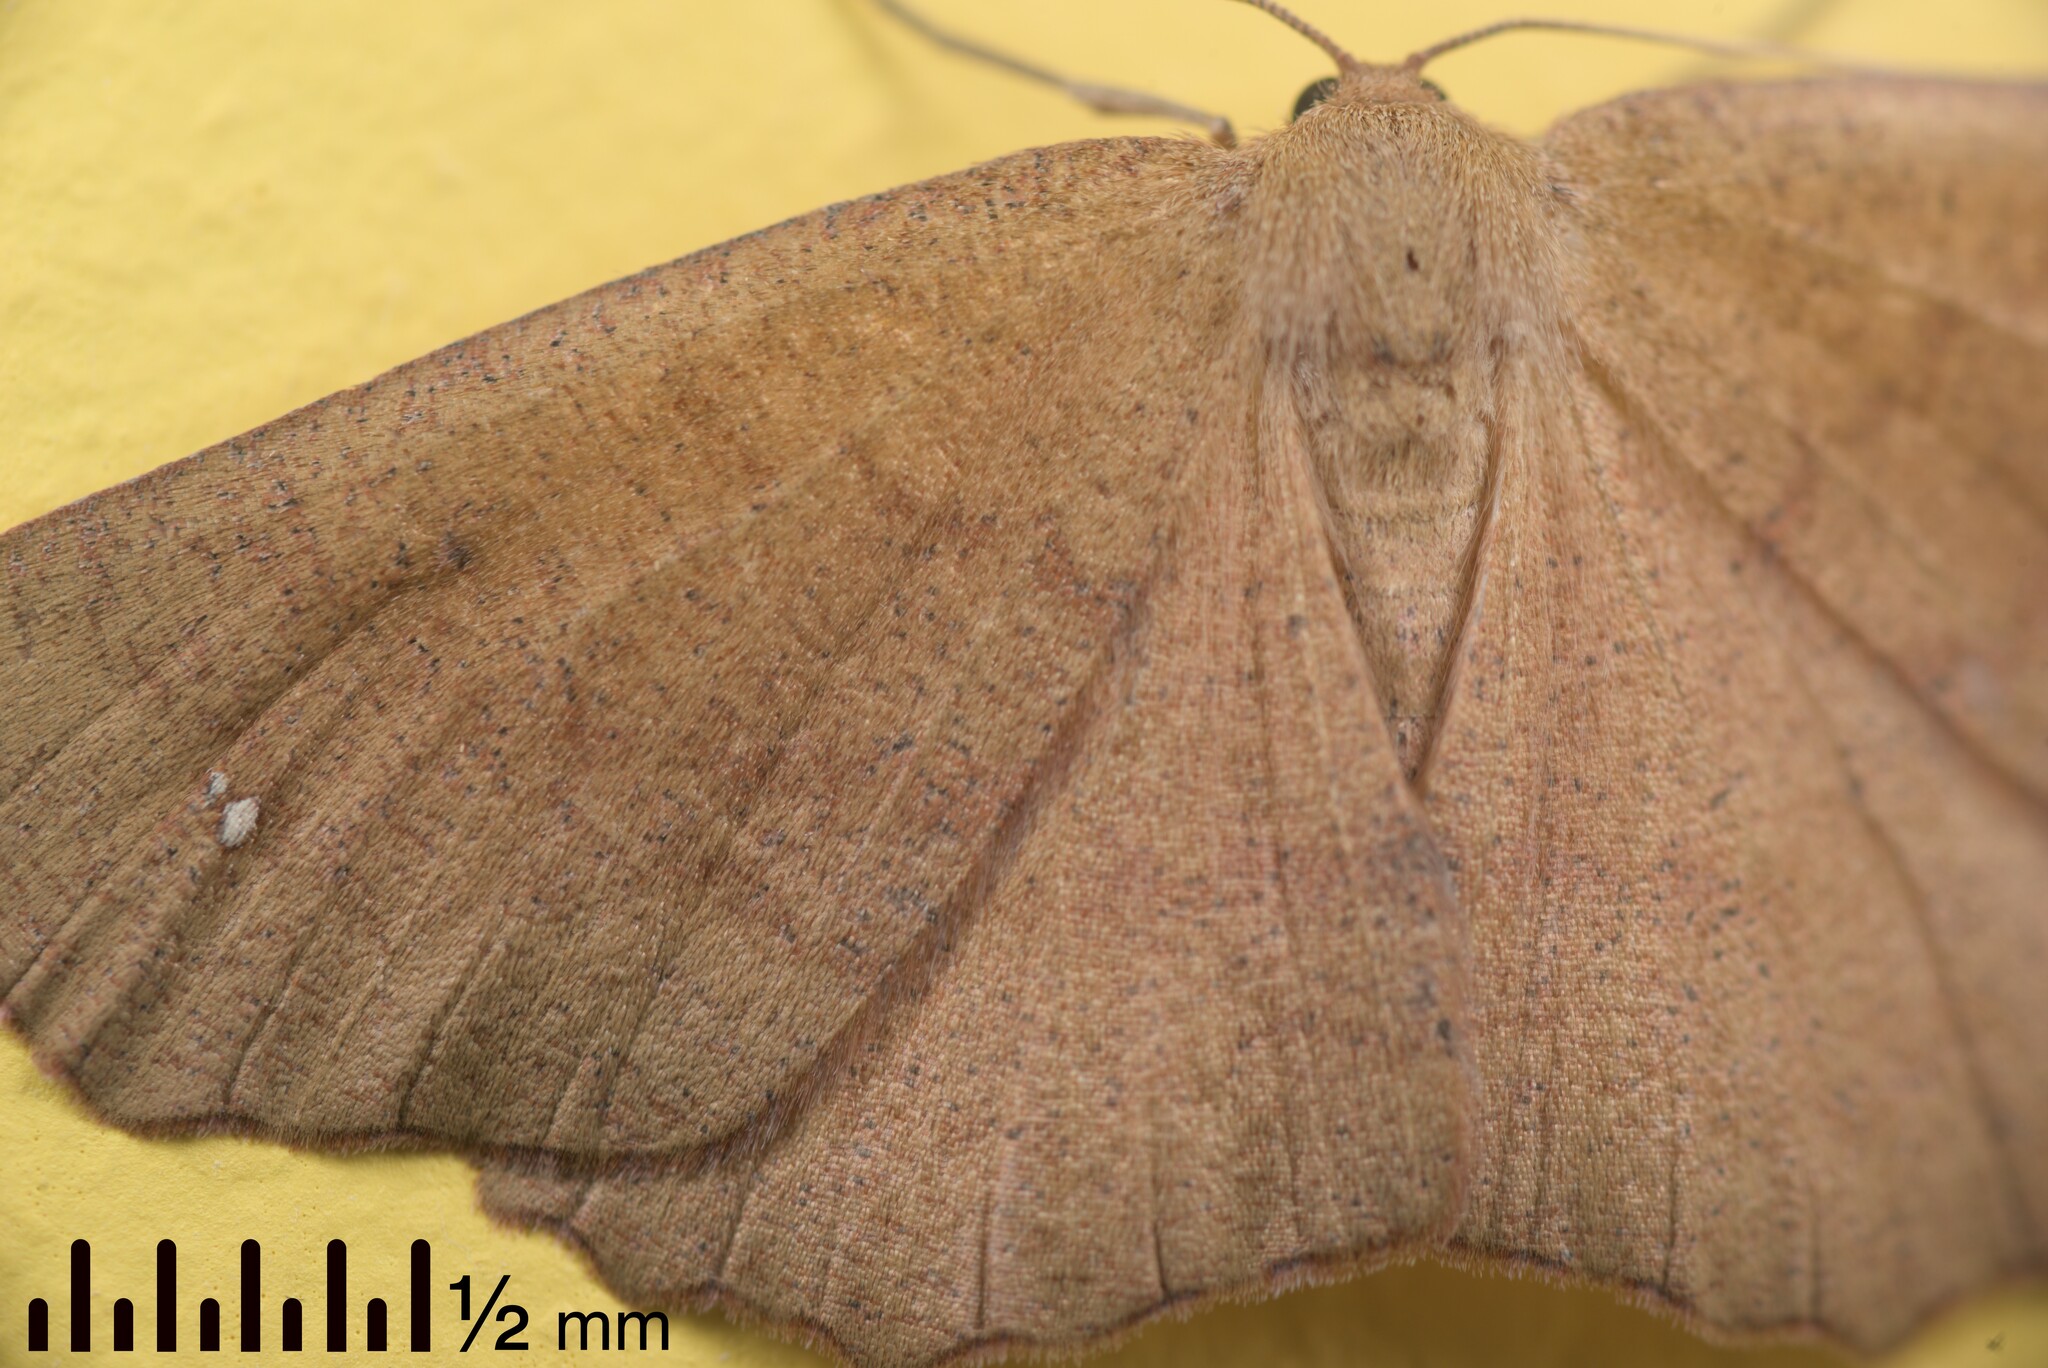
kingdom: Animalia
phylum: Arthropoda
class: Insecta
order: Lepidoptera
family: Geometridae
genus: Xyridacma
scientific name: Xyridacma ustaria
